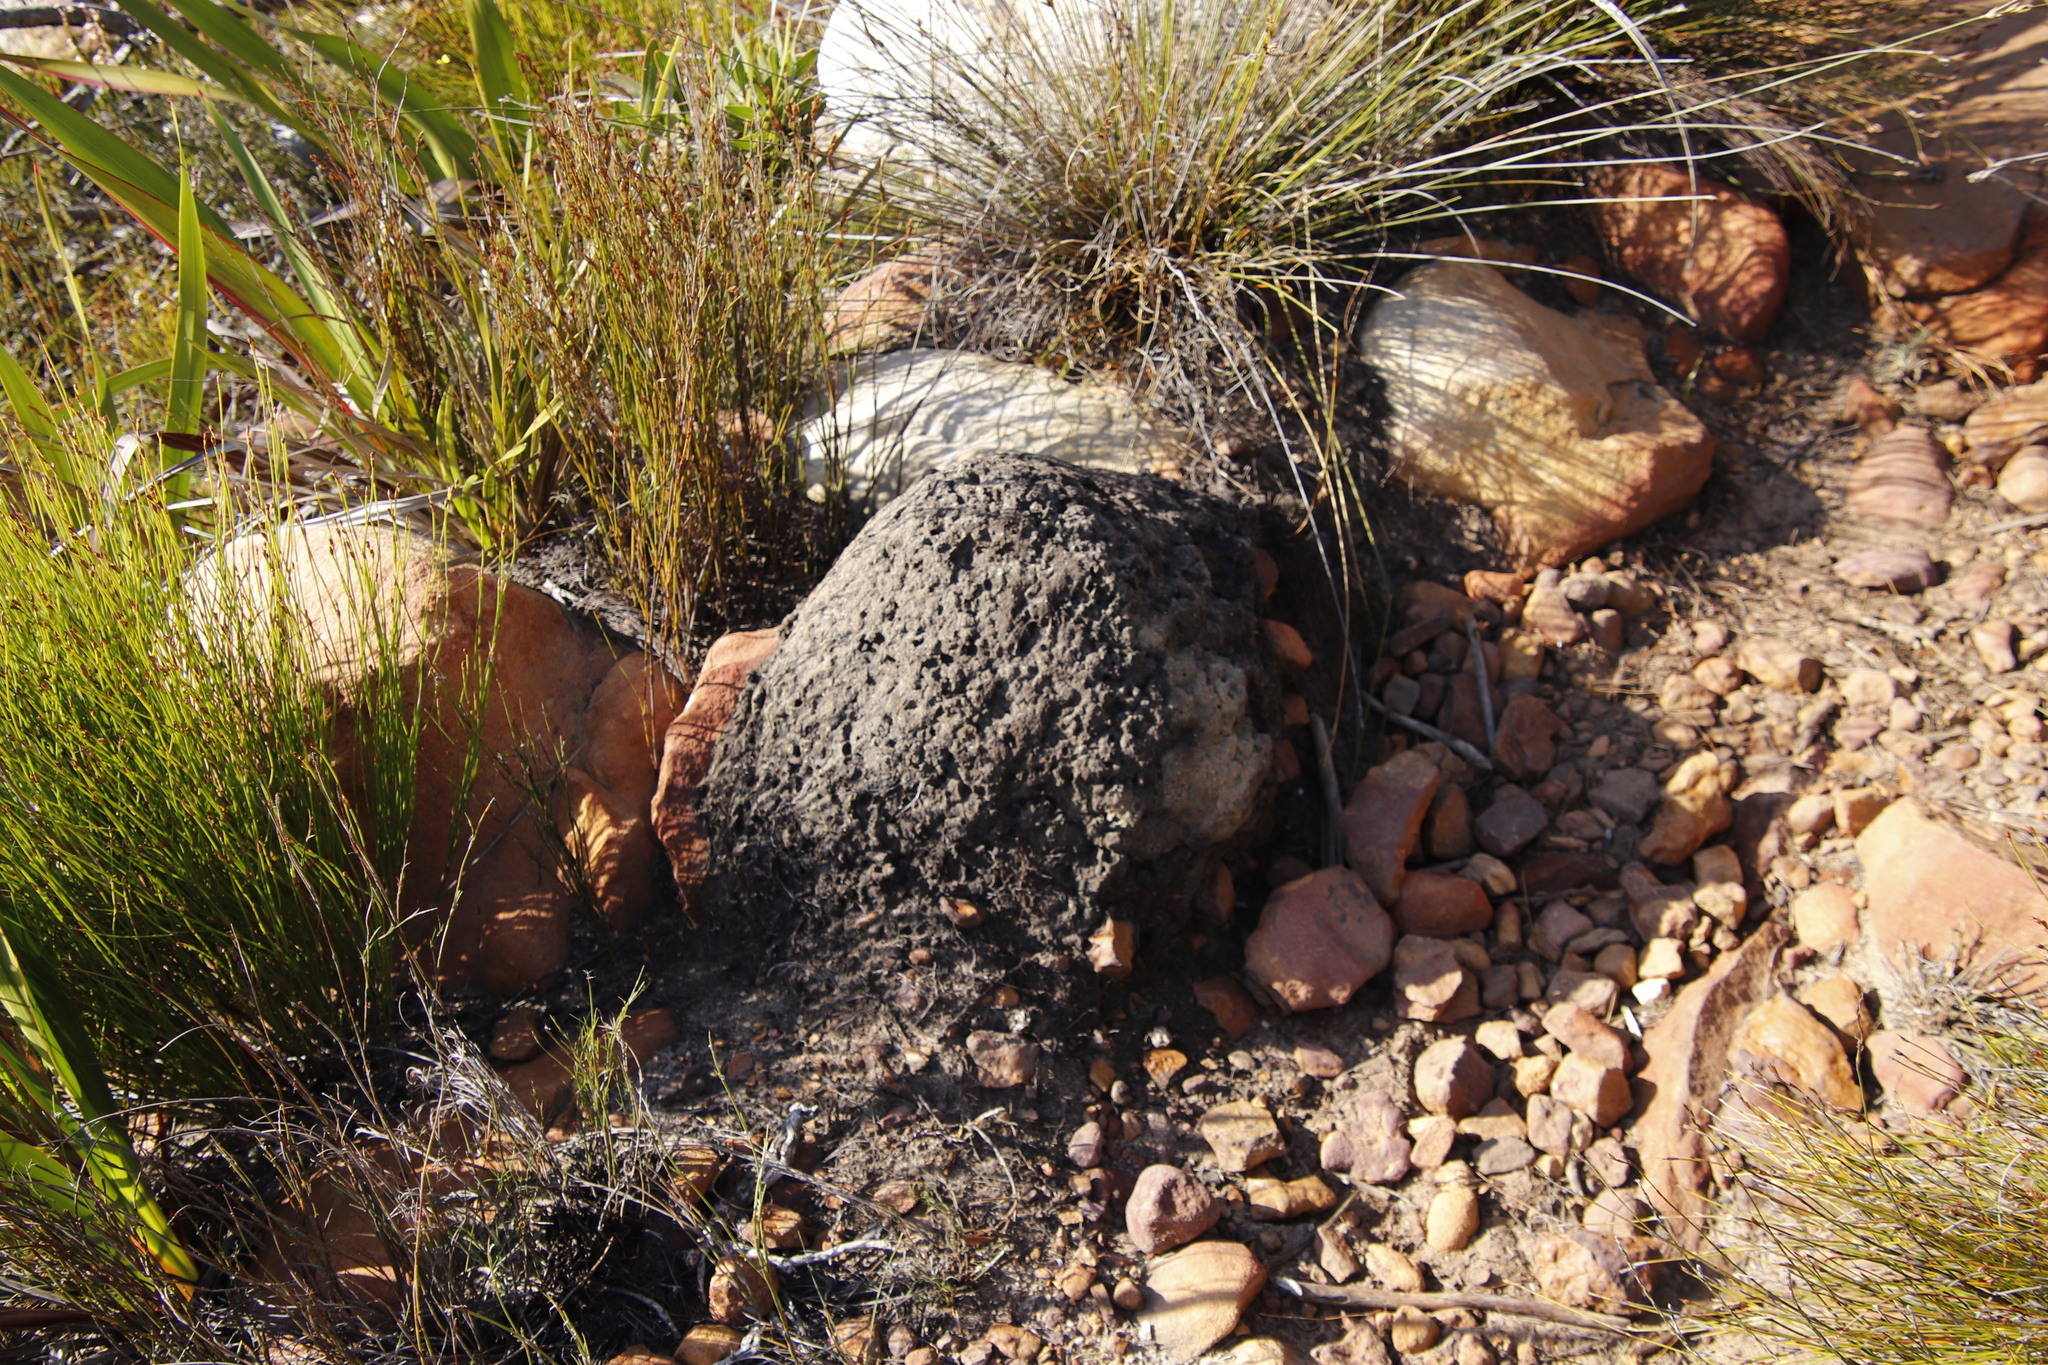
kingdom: Animalia
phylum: Arthropoda
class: Insecta
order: Blattodea
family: Termitidae
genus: Amitermes
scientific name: Amitermes hastatus
